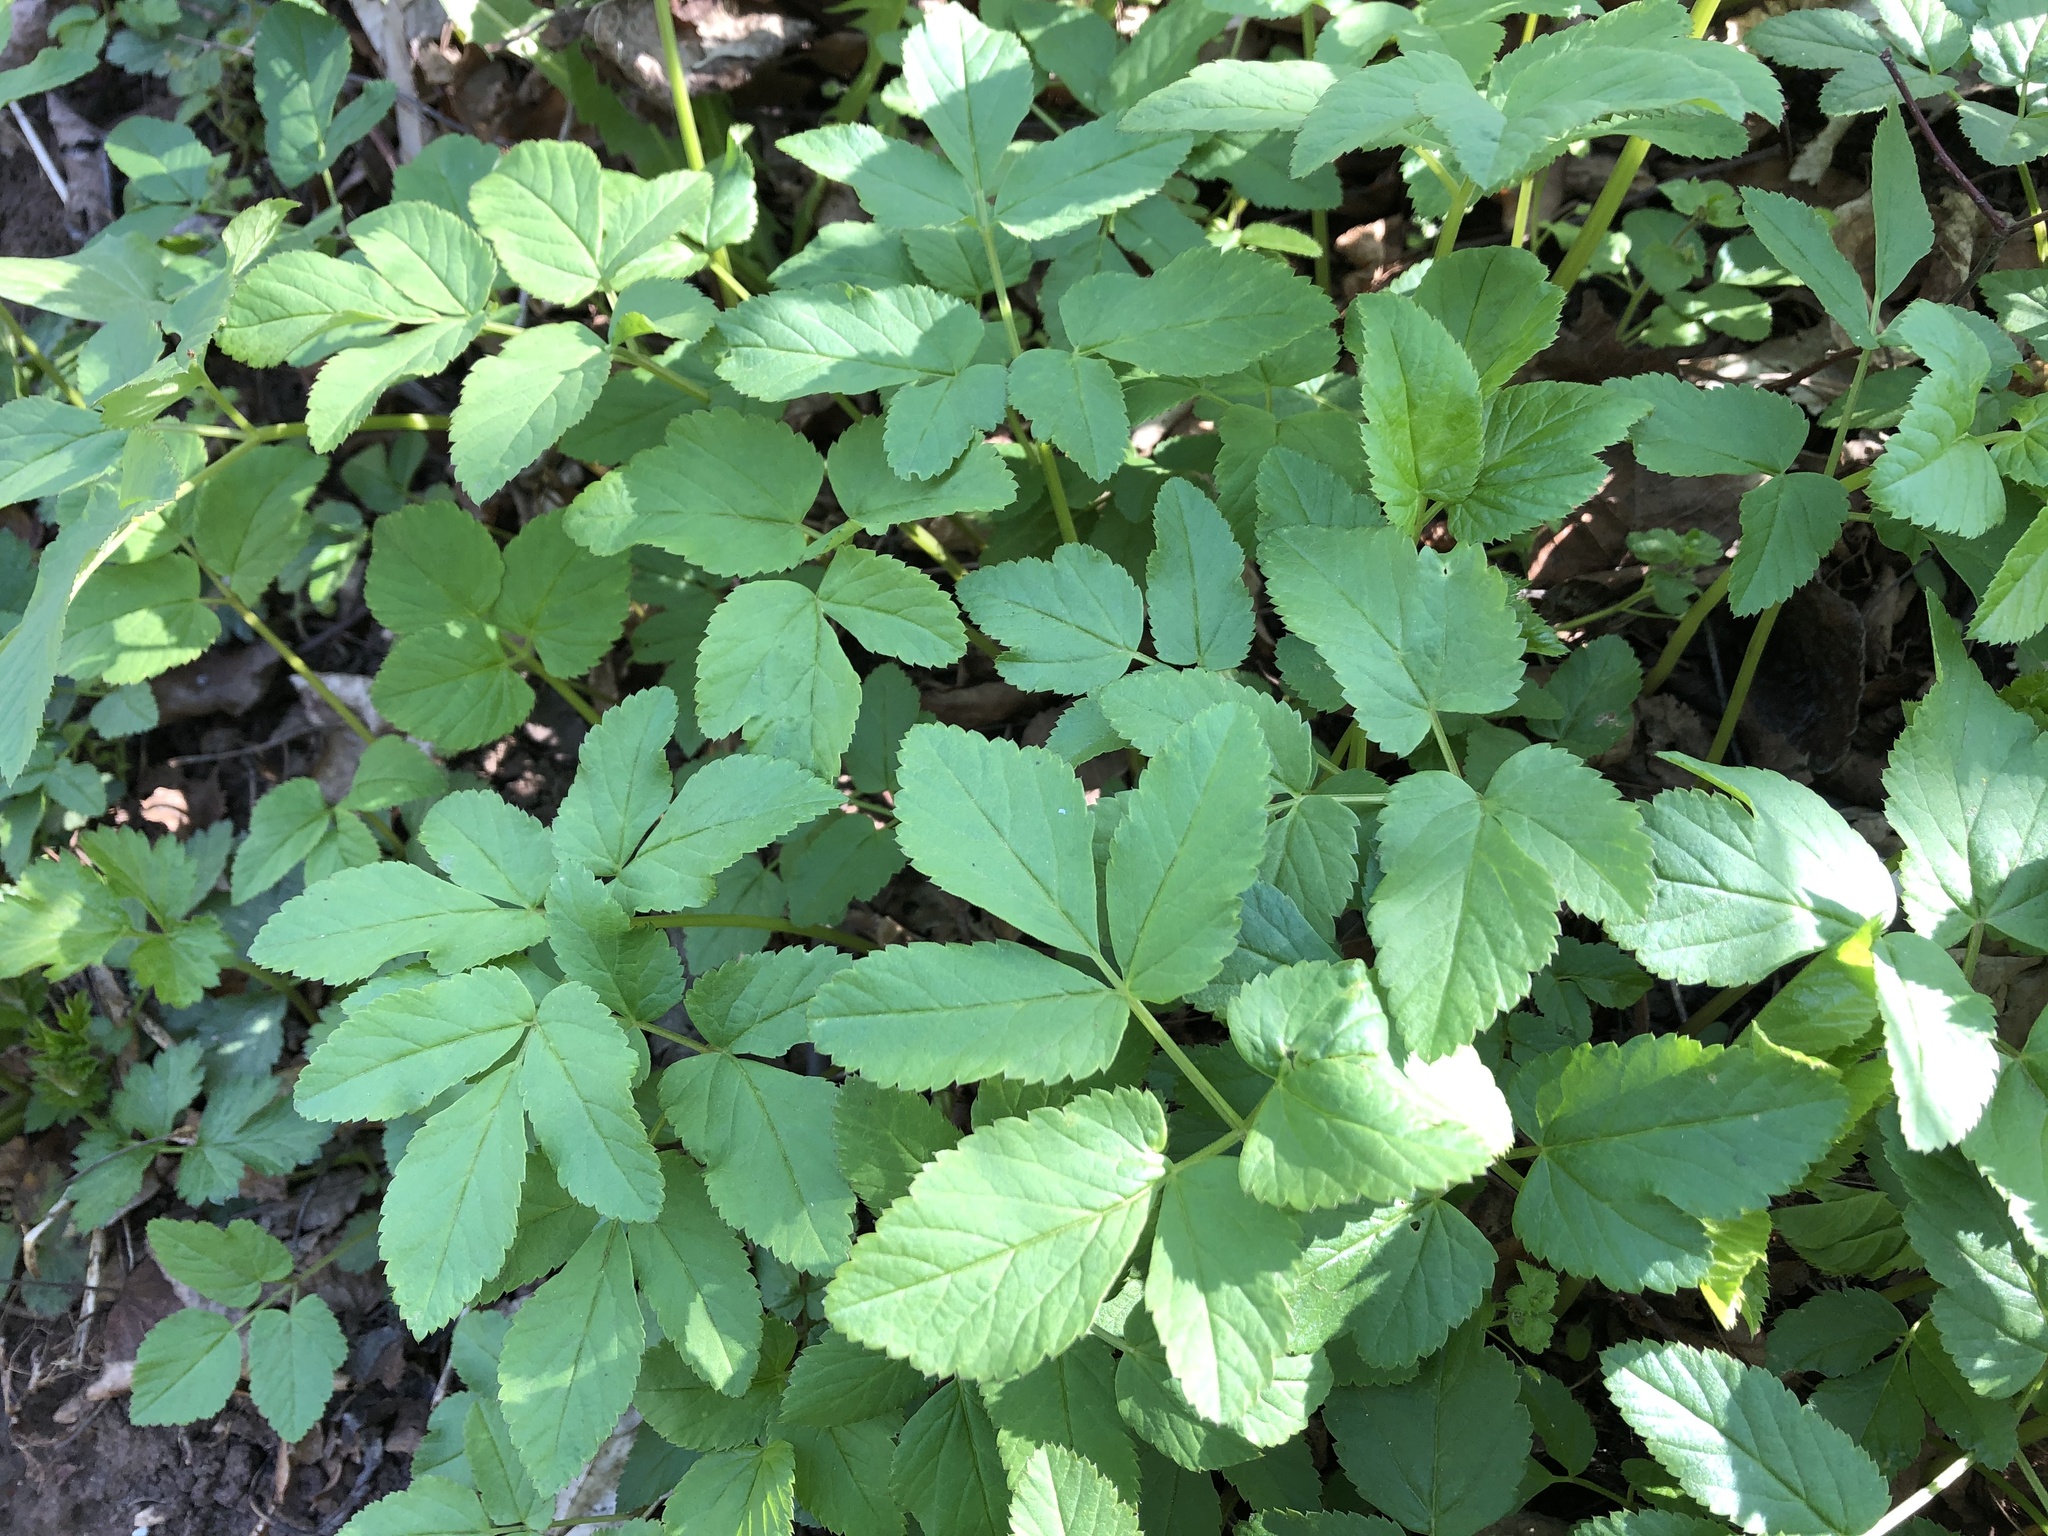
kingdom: Plantae
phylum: Tracheophyta
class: Magnoliopsida
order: Apiales
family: Apiaceae
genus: Aegopodium
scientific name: Aegopodium podagraria
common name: Ground-elder
